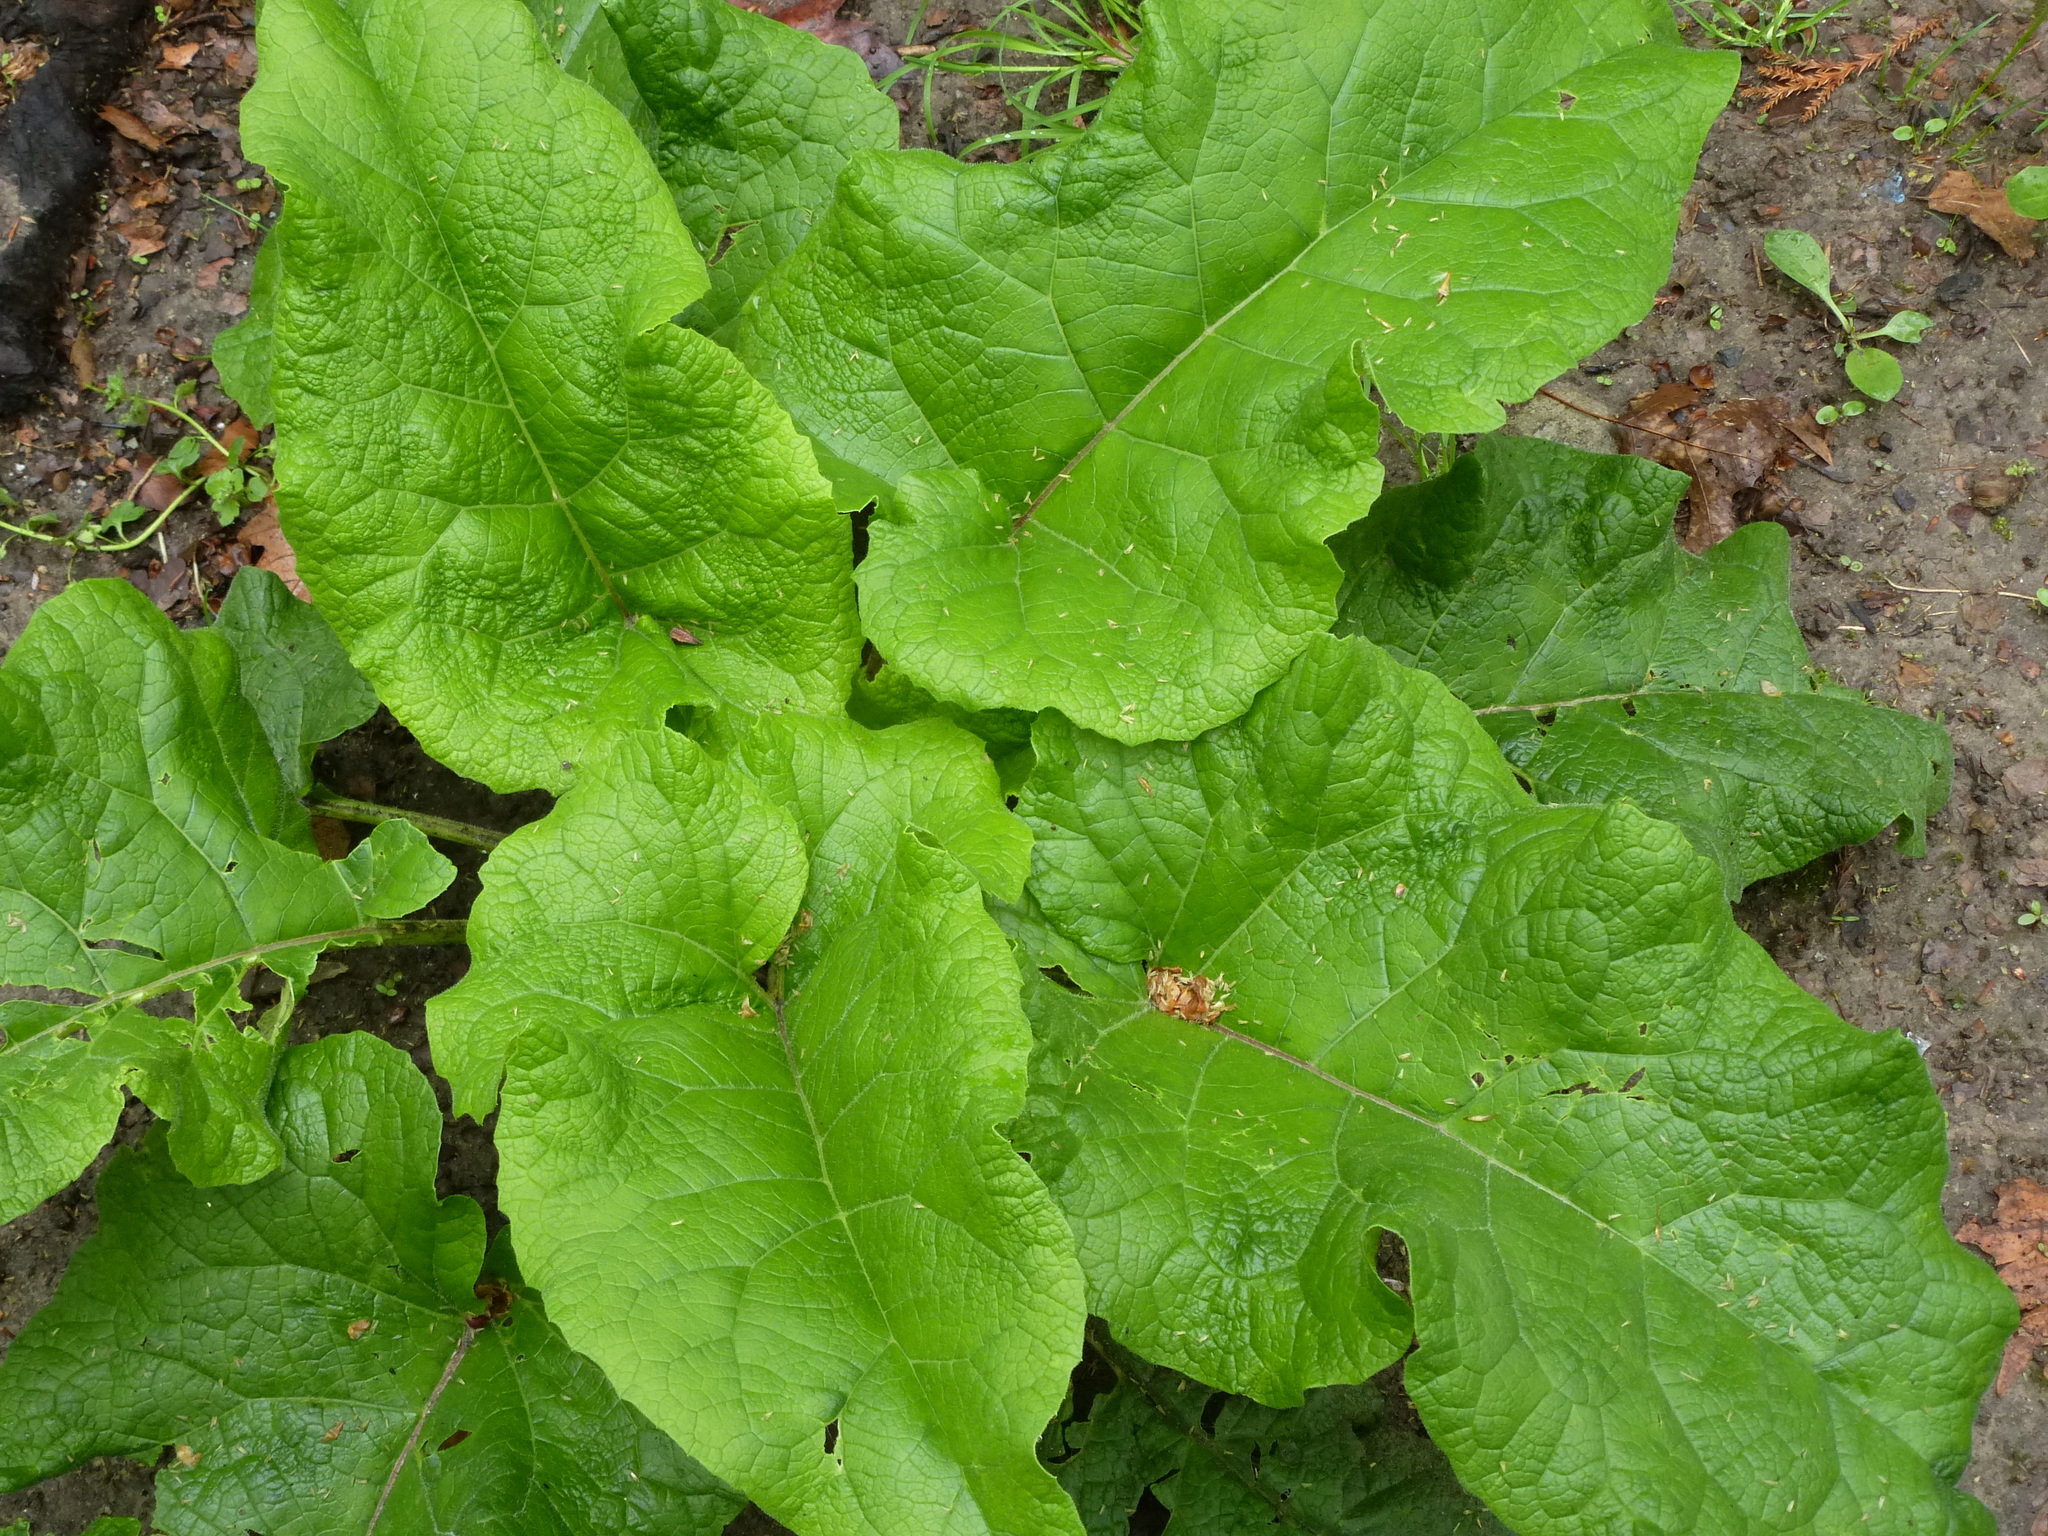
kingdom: Plantae
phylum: Tracheophyta
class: Magnoliopsida
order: Asterales
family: Asteraceae
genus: Arctium
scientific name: Arctium
